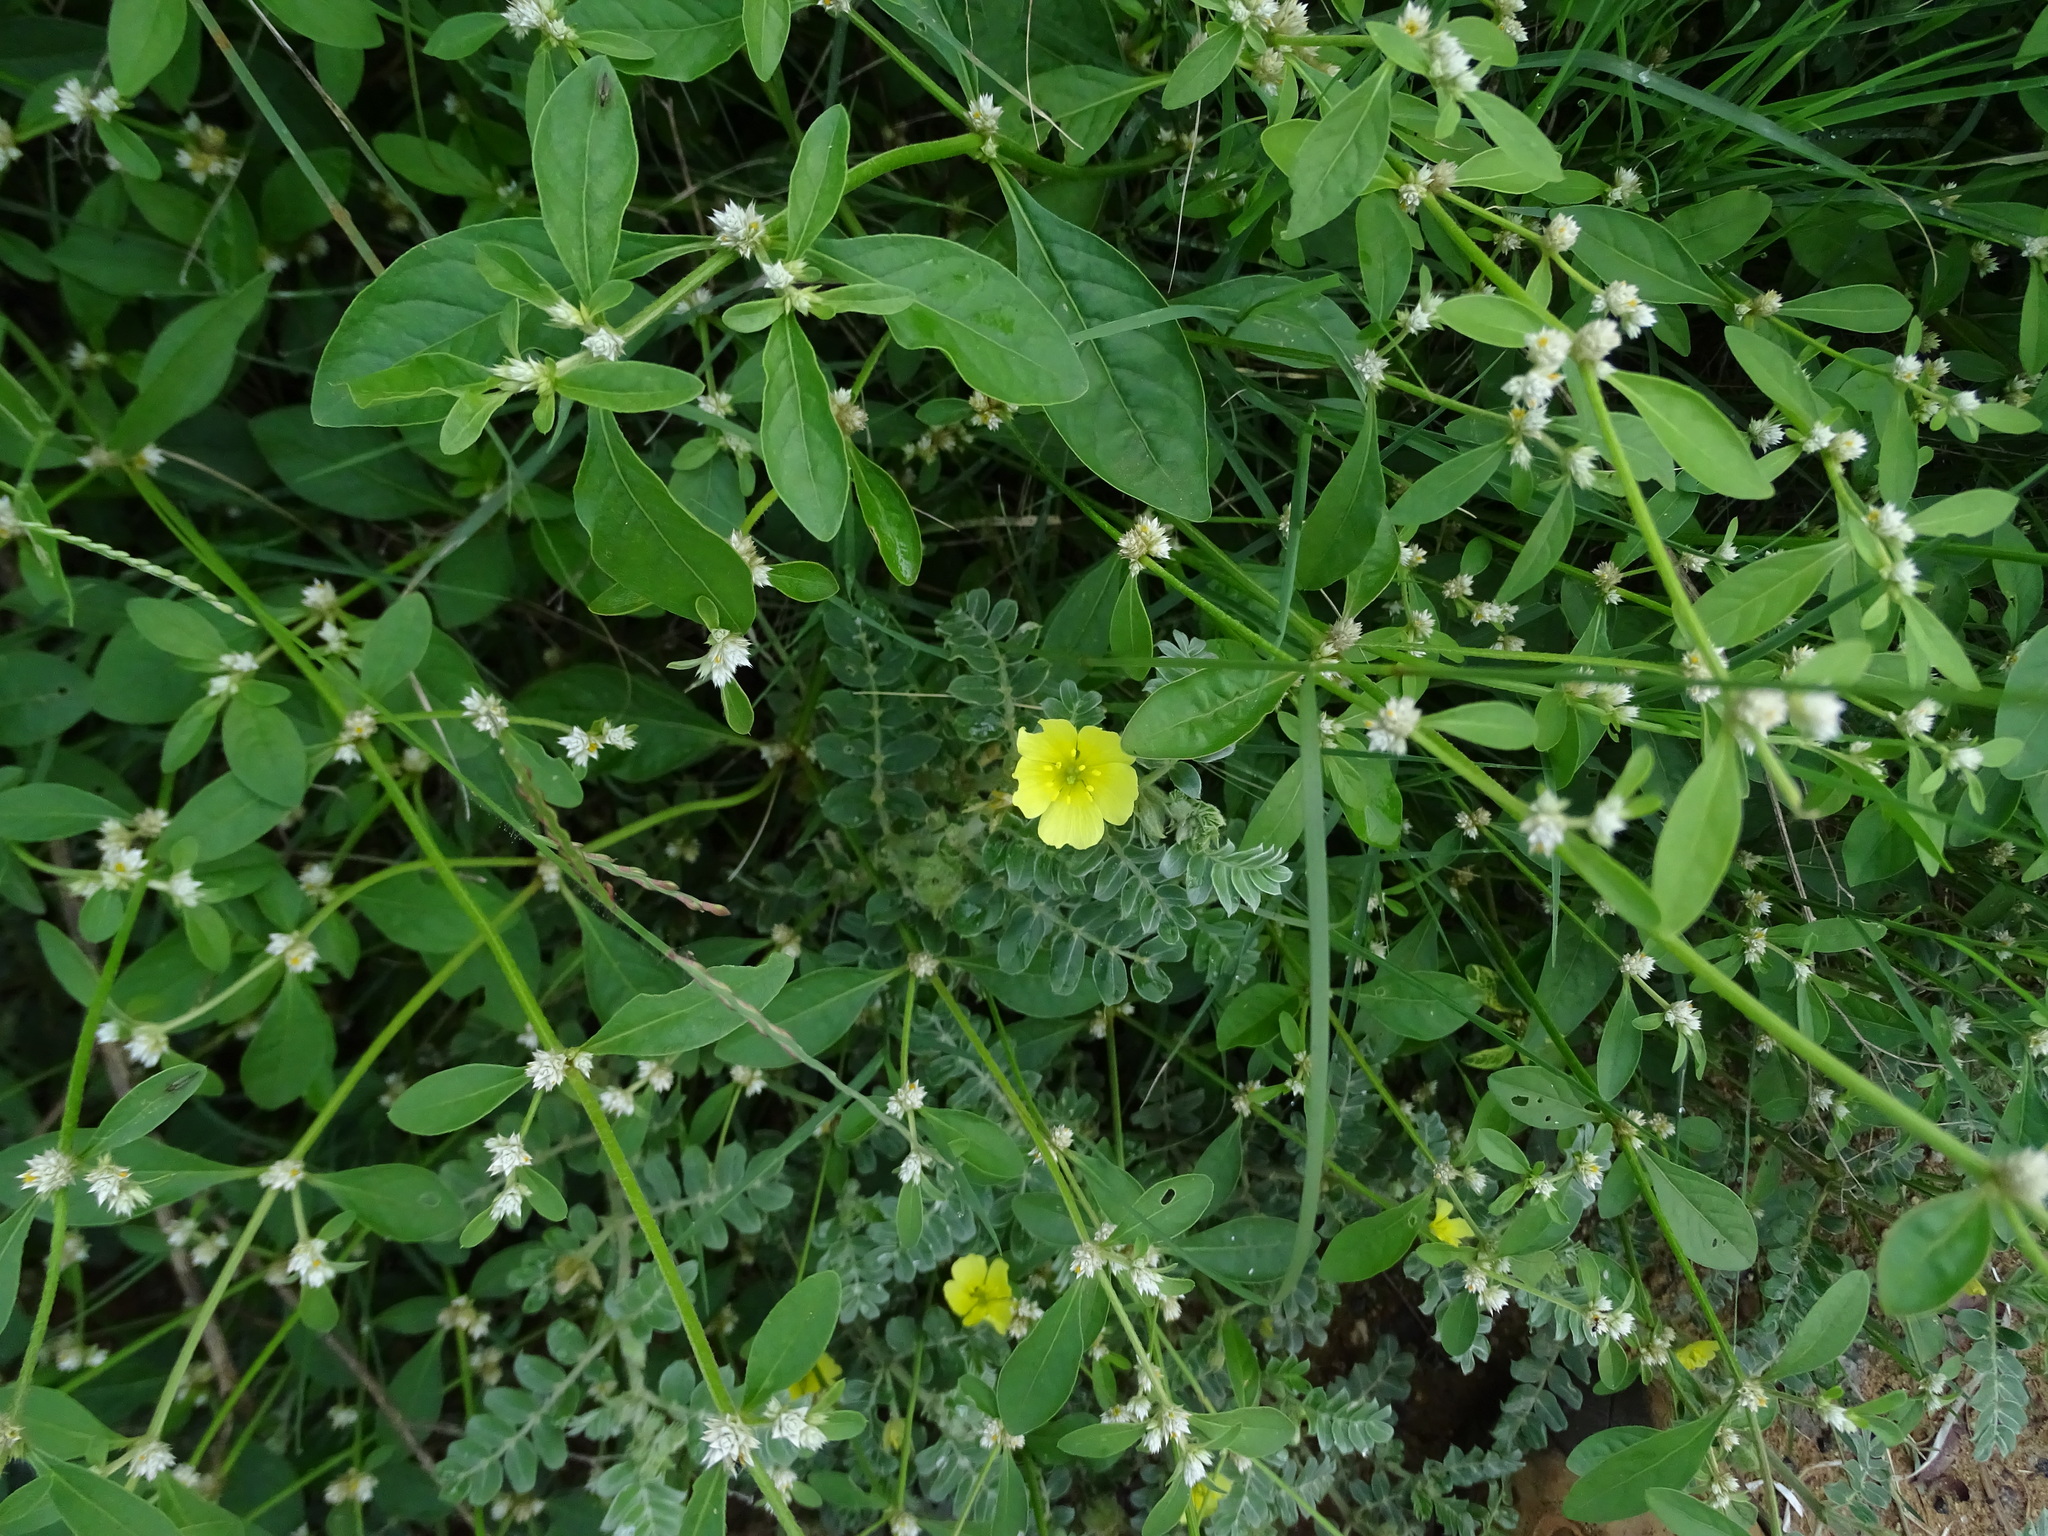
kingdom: Plantae
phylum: Tracheophyta
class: Magnoliopsida
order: Zygophyllales
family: Zygophyllaceae
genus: Tribulus
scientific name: Tribulus terrestris
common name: Puncturevine
